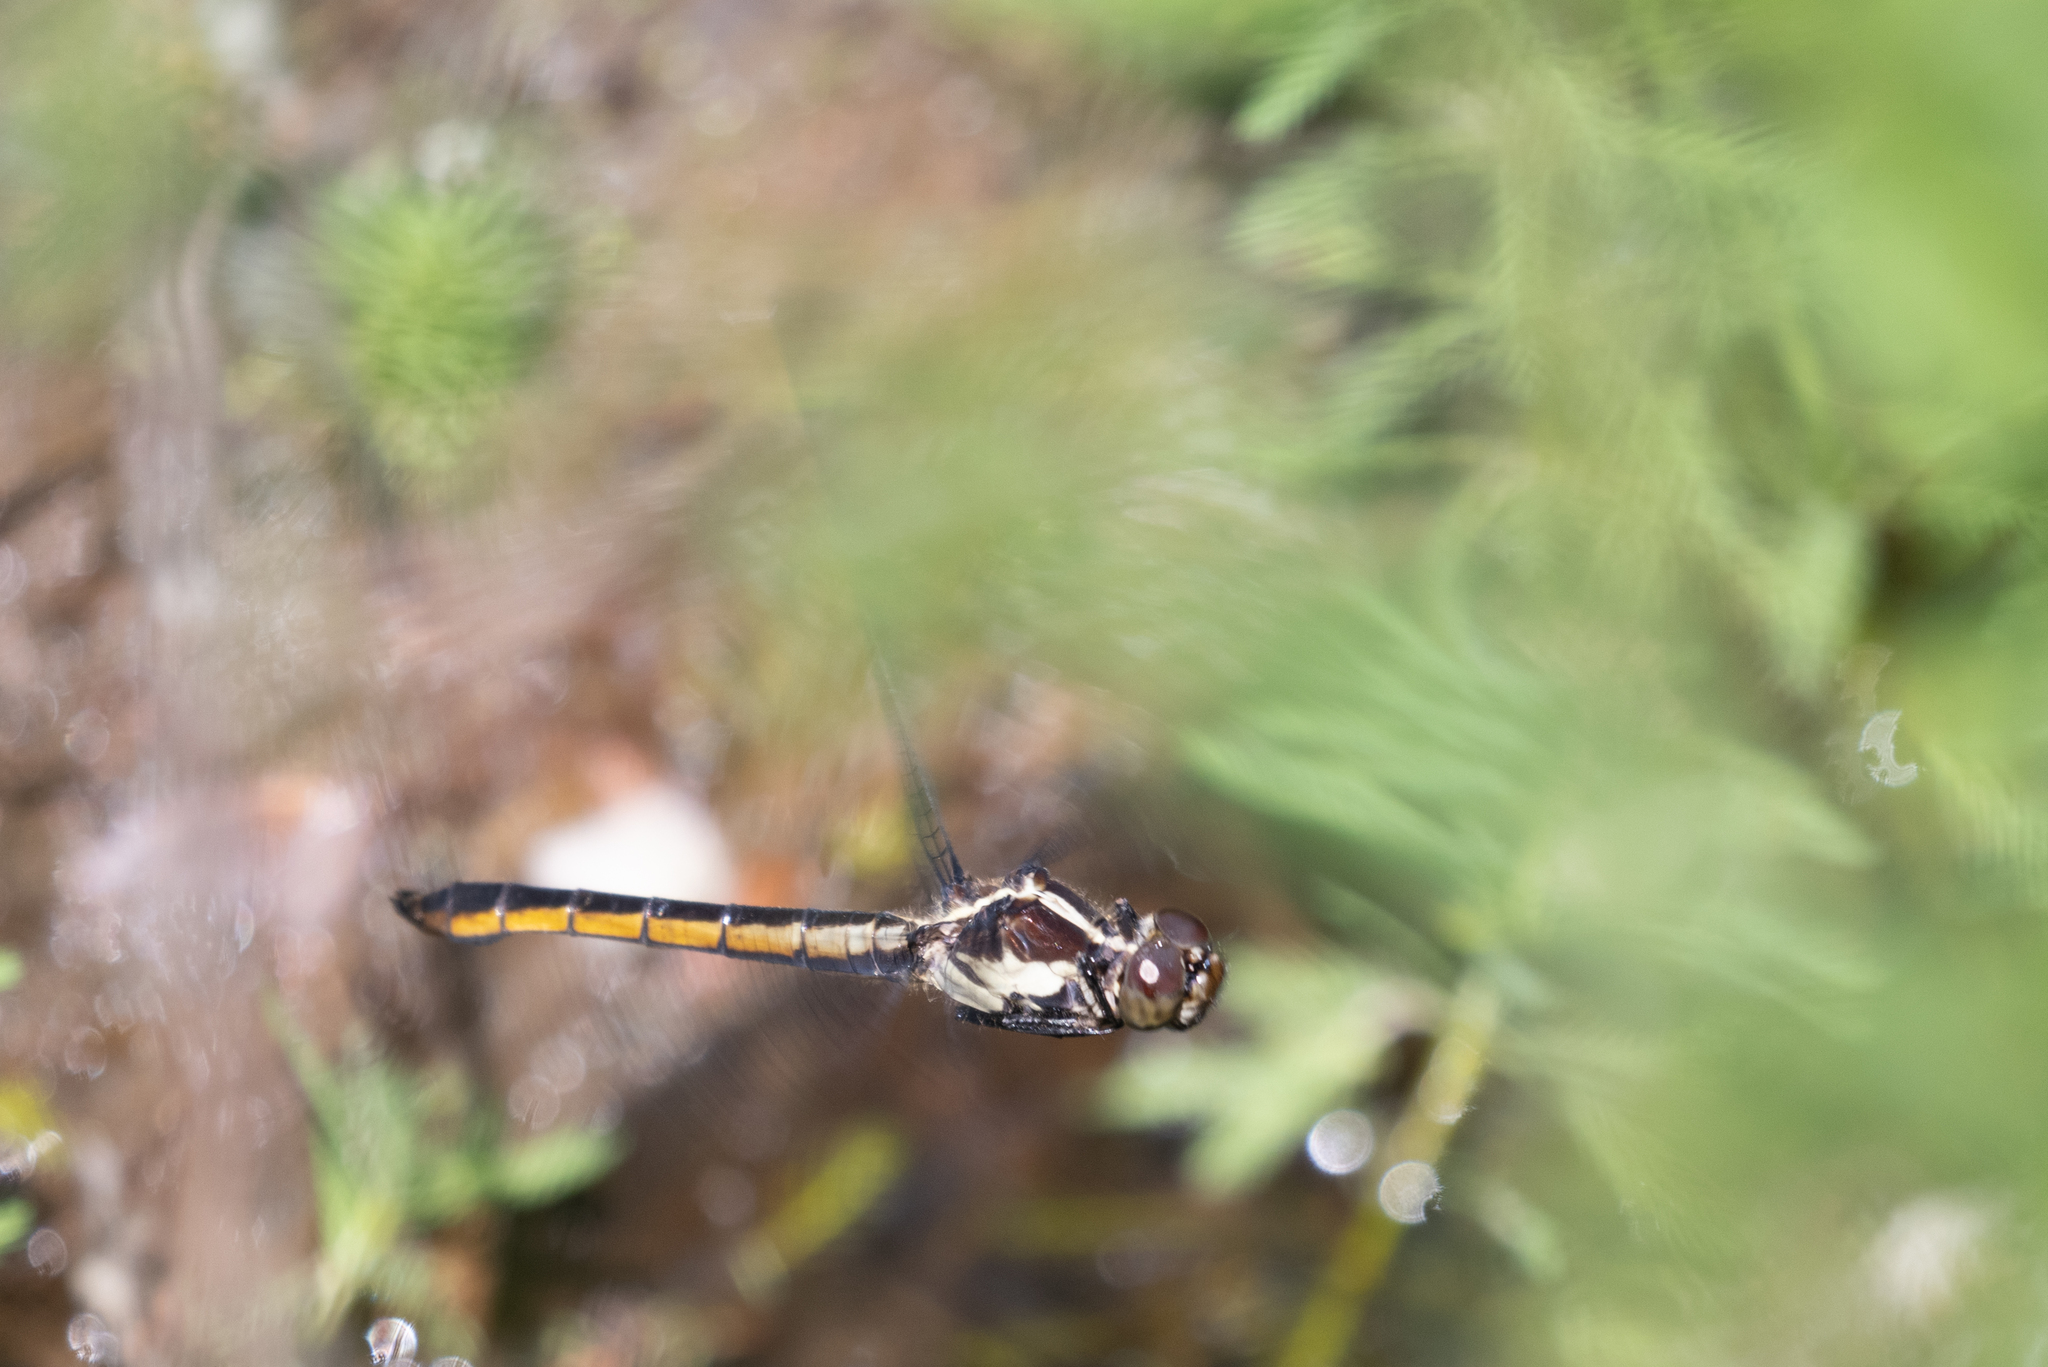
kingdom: Animalia
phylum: Arthropoda
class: Insecta
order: Odonata
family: Libellulidae
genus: Libellula
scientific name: Libellula incesta
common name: Slaty skimmer
